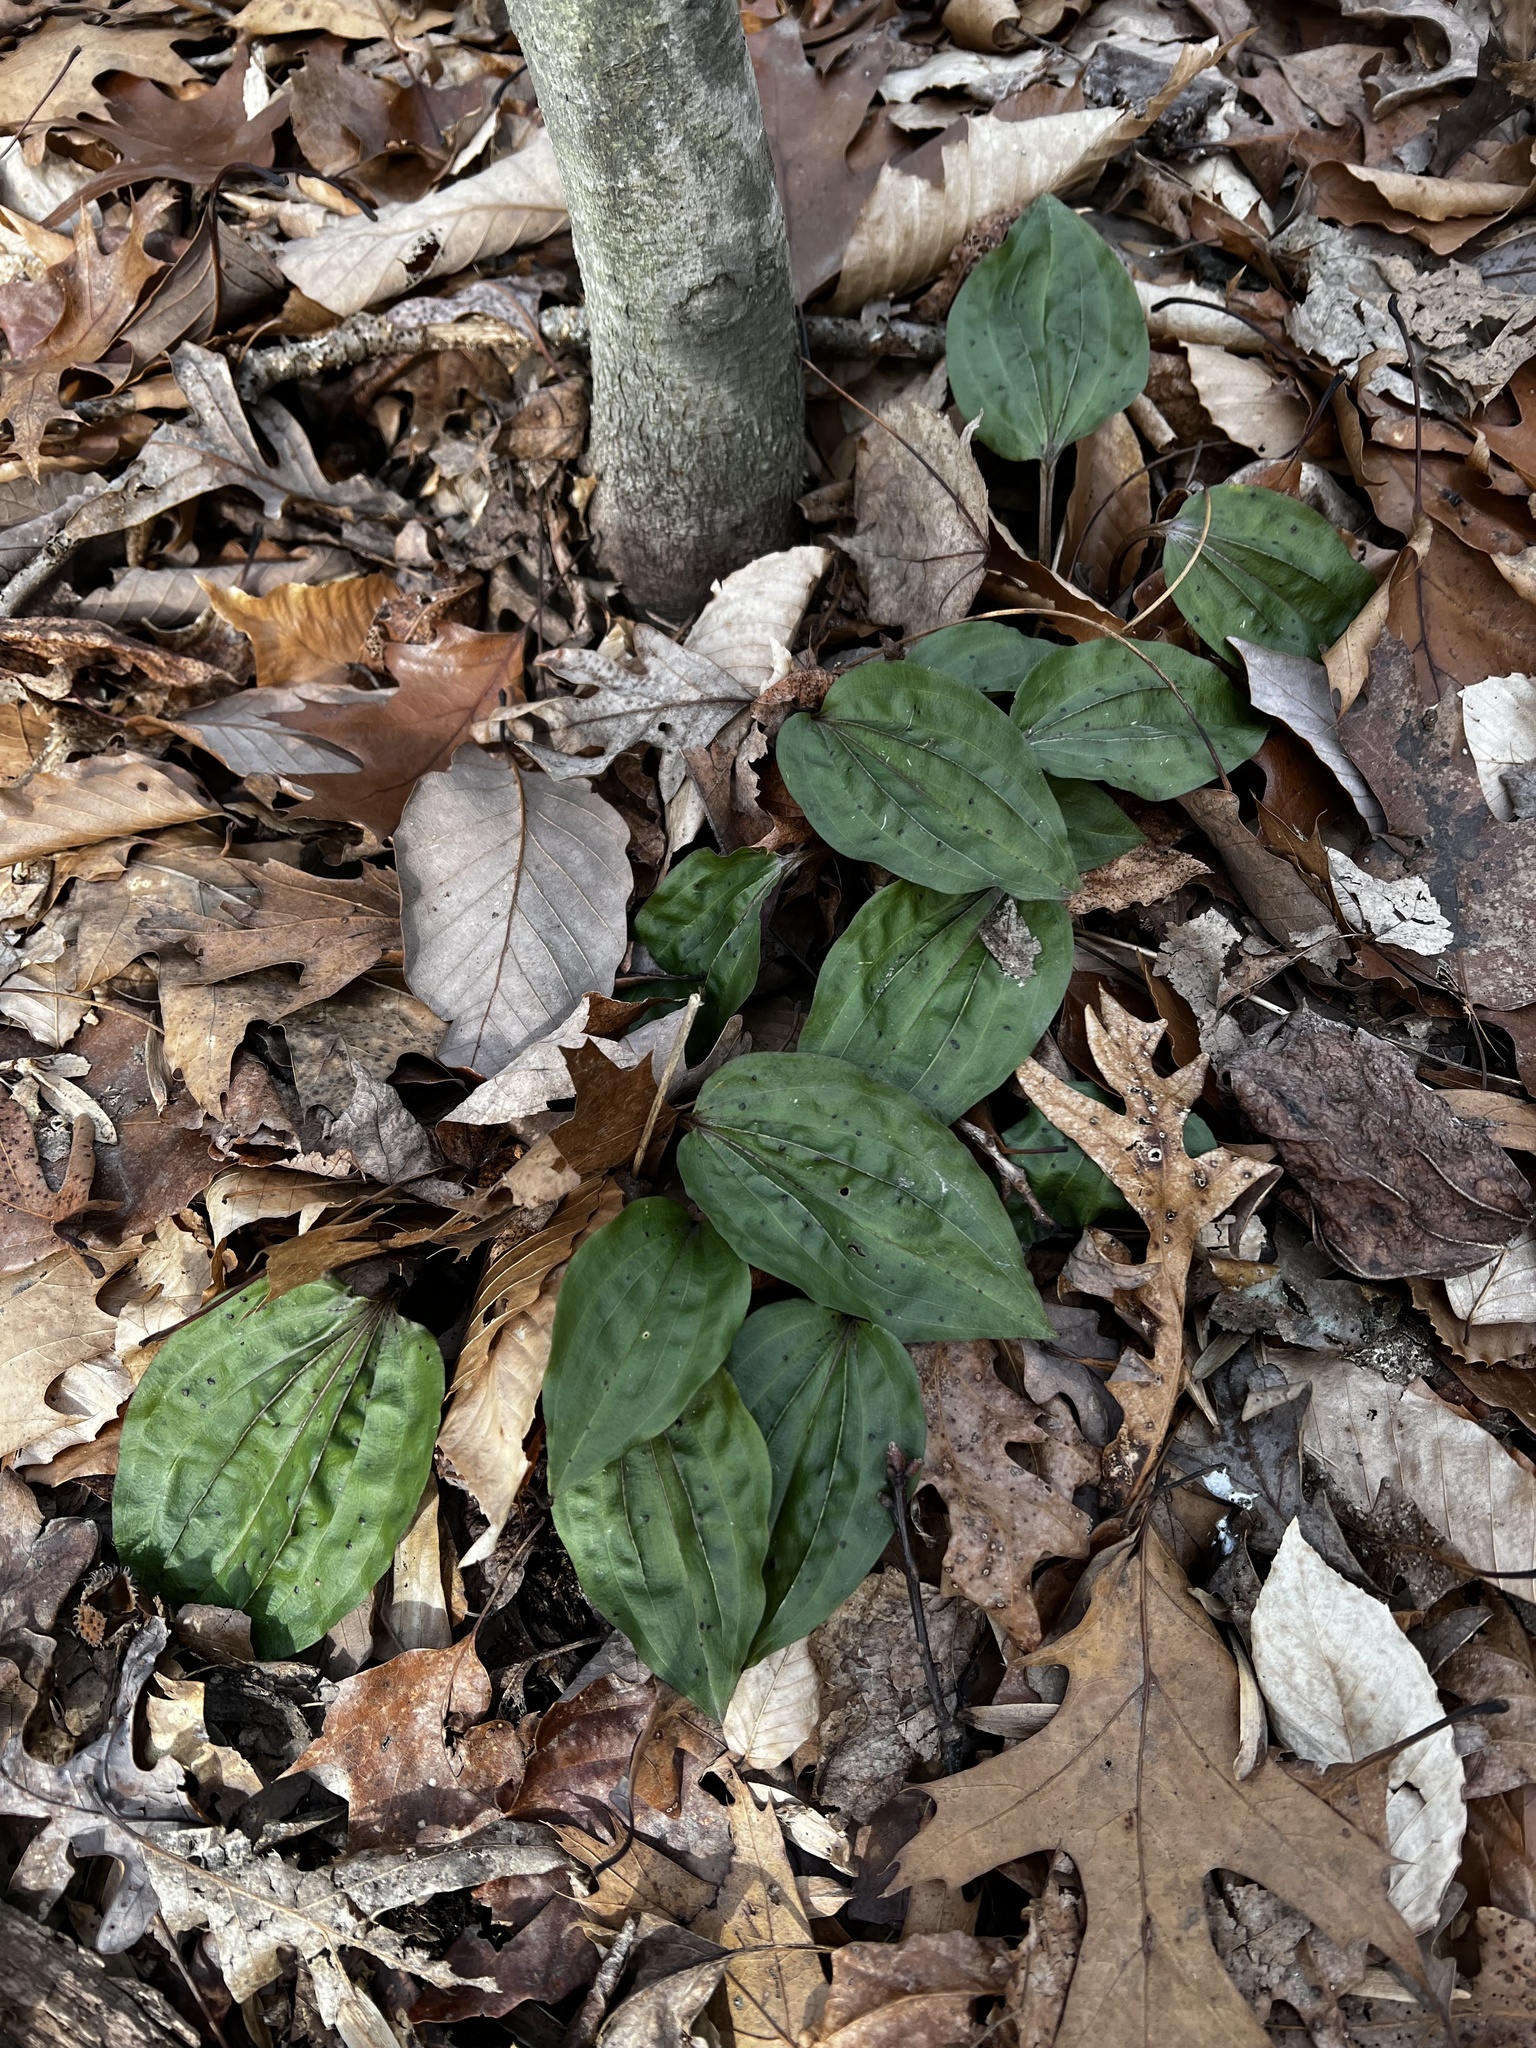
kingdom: Plantae
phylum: Tracheophyta
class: Liliopsida
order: Asparagales
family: Orchidaceae
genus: Tipularia
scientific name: Tipularia discolor
